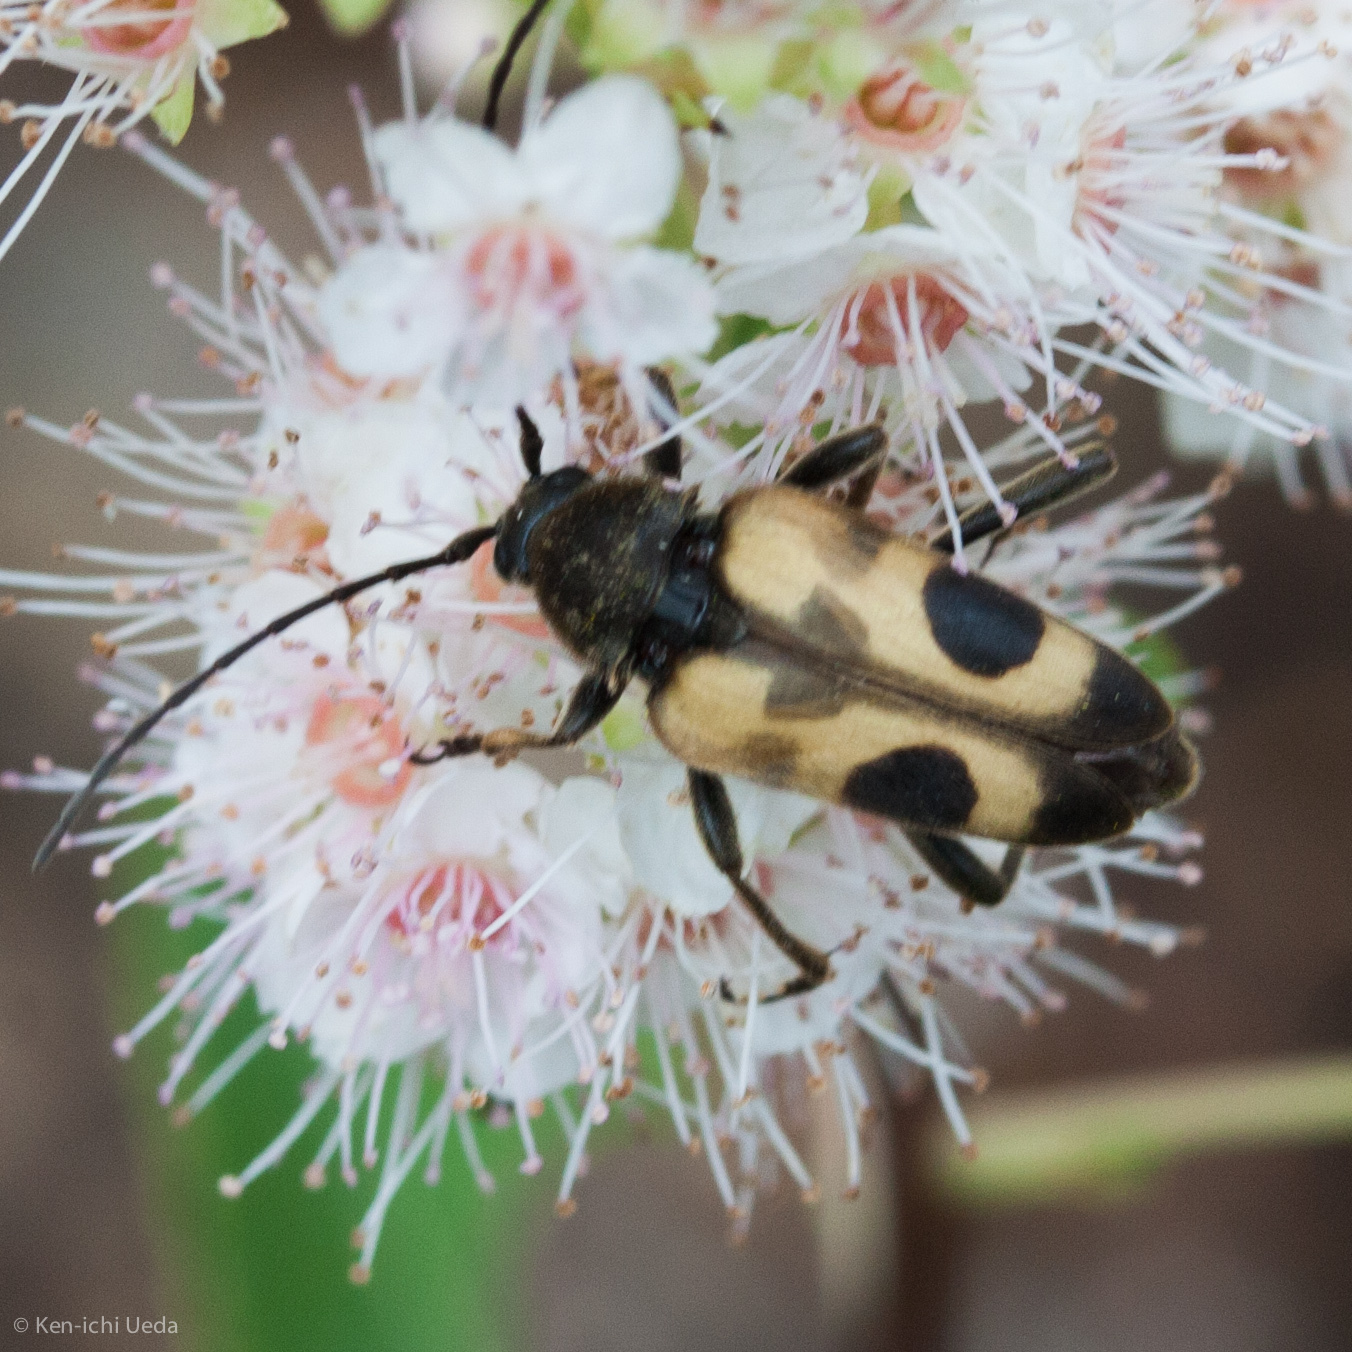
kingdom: Animalia
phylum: Arthropoda
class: Insecta
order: Coleoptera
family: Cerambycidae
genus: Judolia
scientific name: Judolia cordifera
